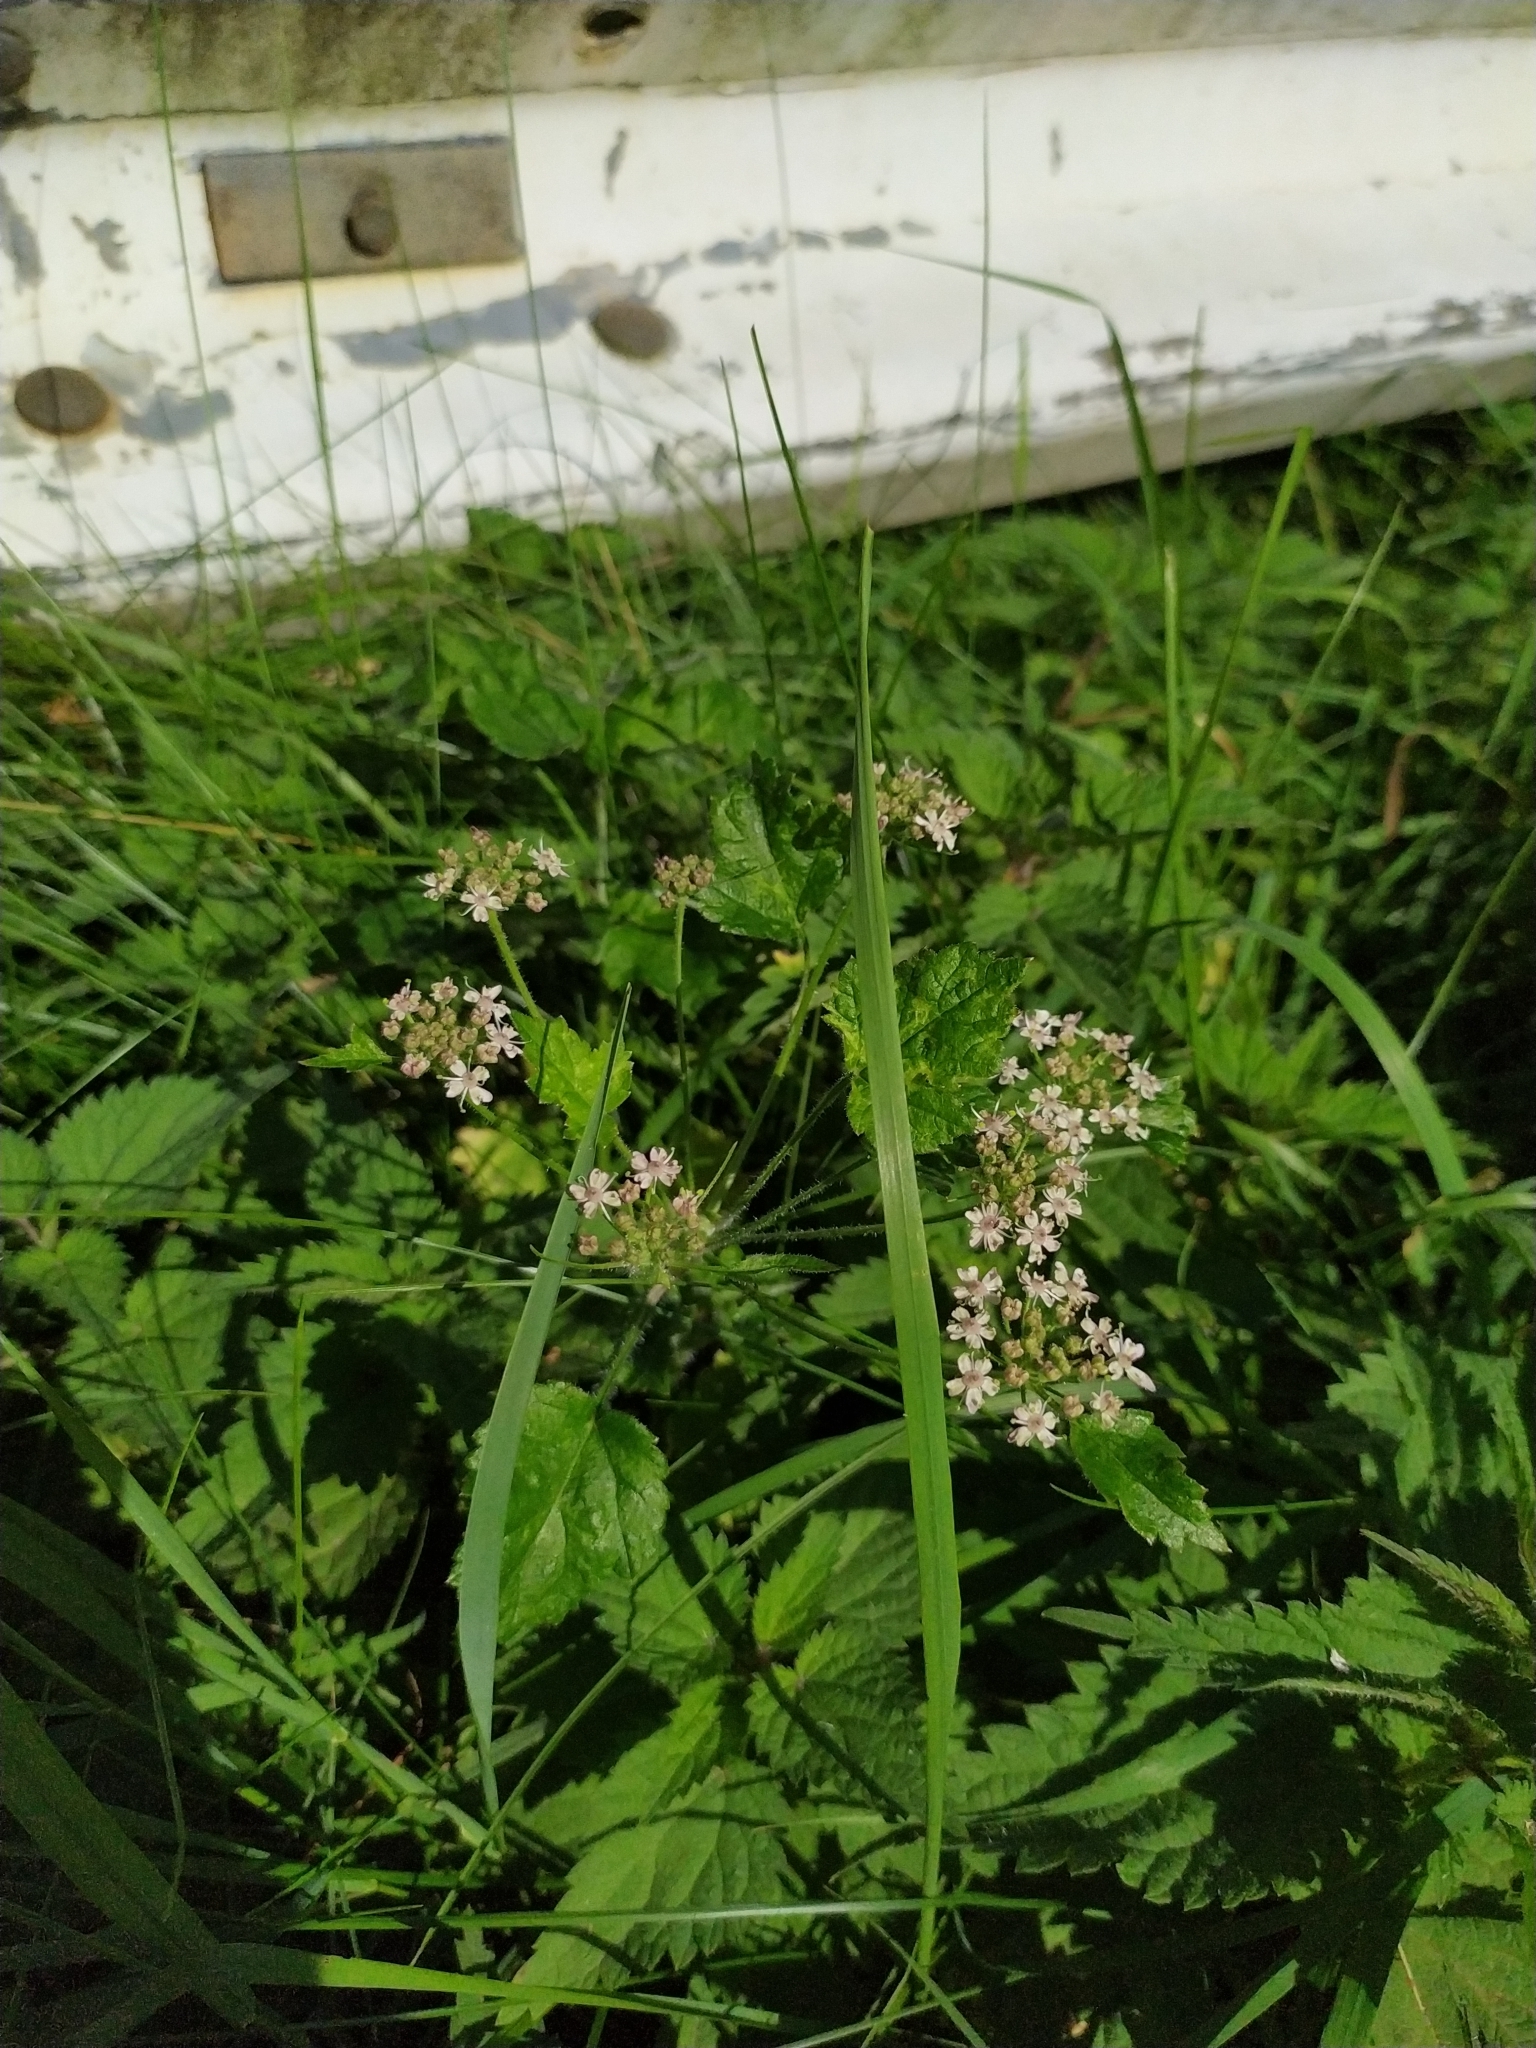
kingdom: Plantae
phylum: Tracheophyta
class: Magnoliopsida
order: Apiales
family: Apiaceae
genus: Heracleum
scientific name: Heracleum sphondylium
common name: Hogweed
